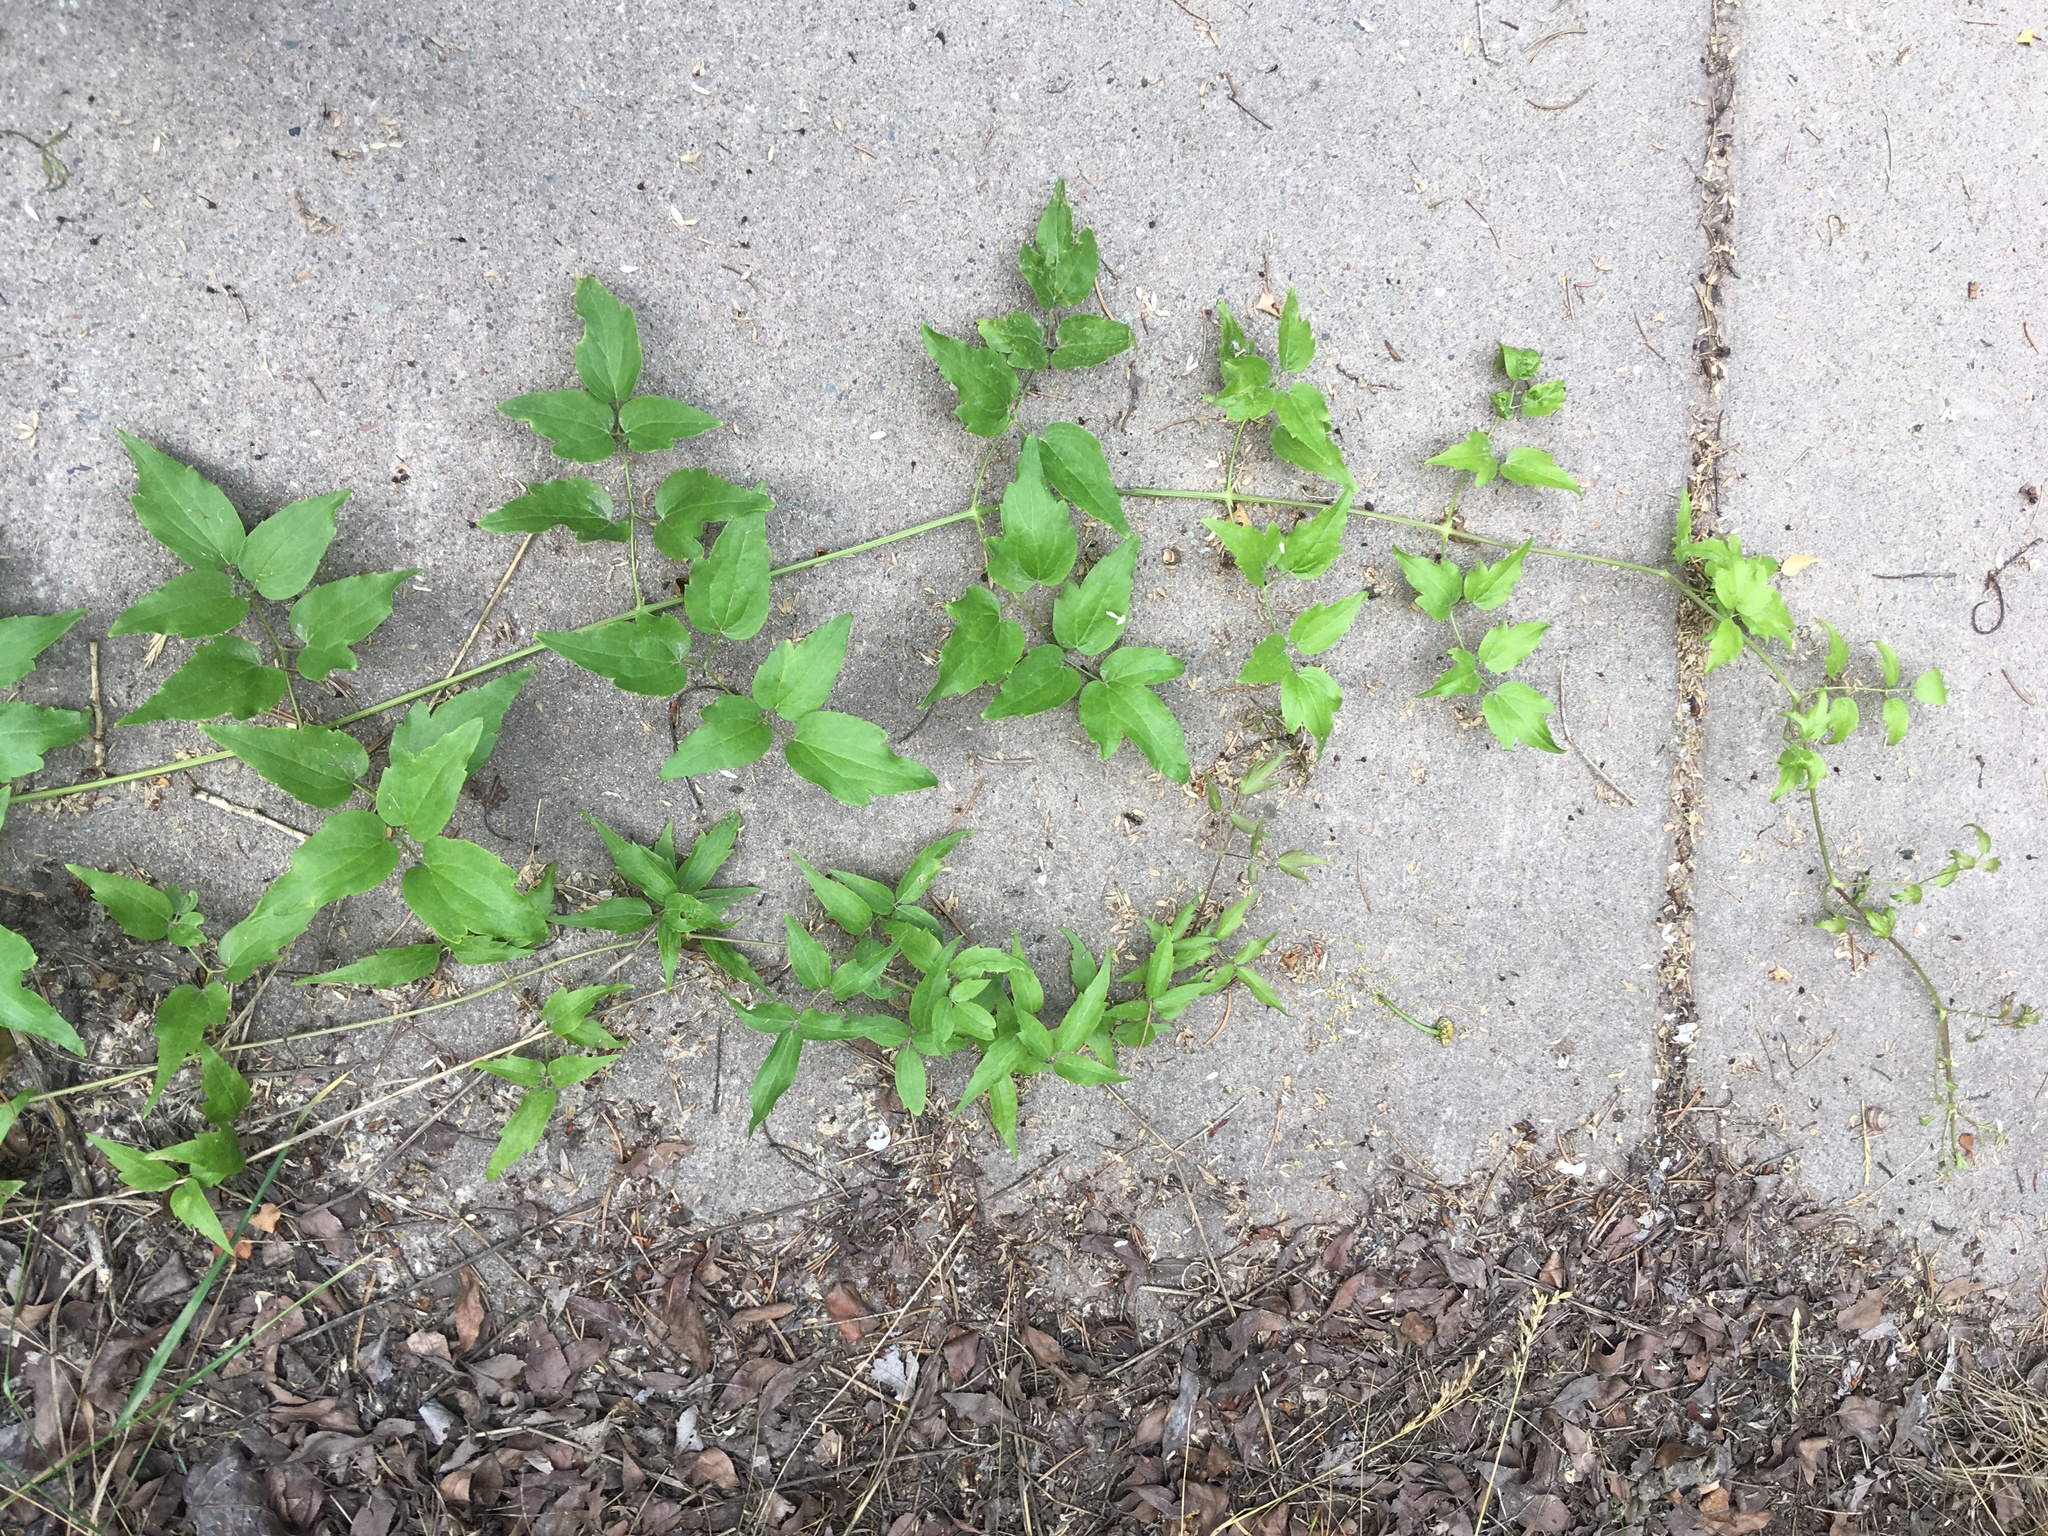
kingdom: Plantae
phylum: Tracheophyta
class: Magnoliopsida
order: Ranunculales
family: Ranunculaceae
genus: Clematis
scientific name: Clematis ligusticifolia
